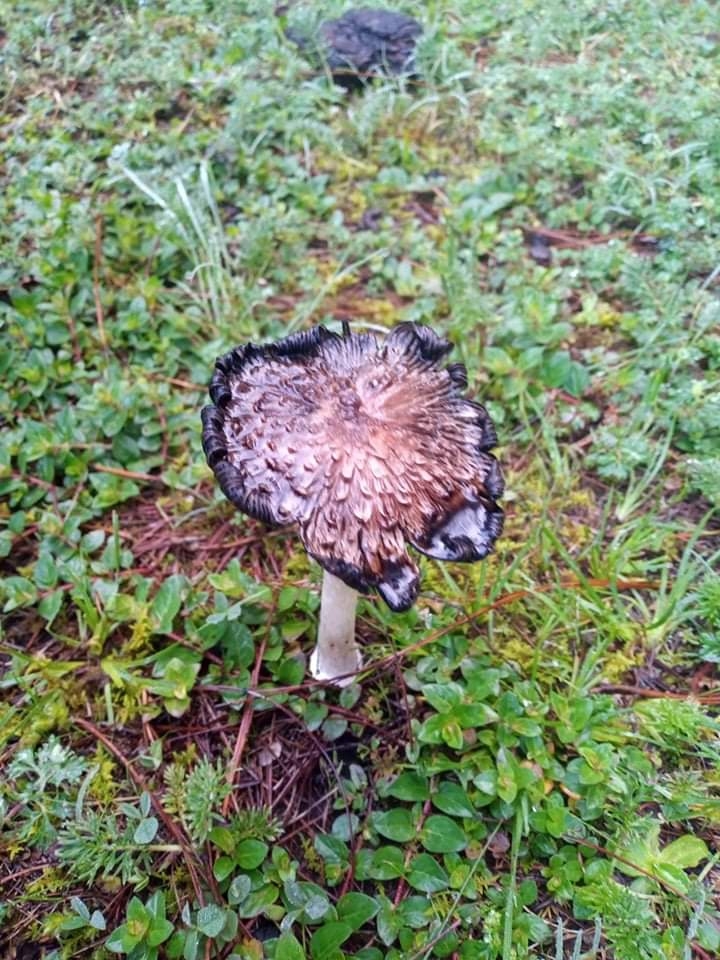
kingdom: Fungi
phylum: Basidiomycota
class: Agaricomycetes
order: Agaricales
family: Agaricaceae
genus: Coprinus
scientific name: Coprinus comatus
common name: Lawyer's wig
